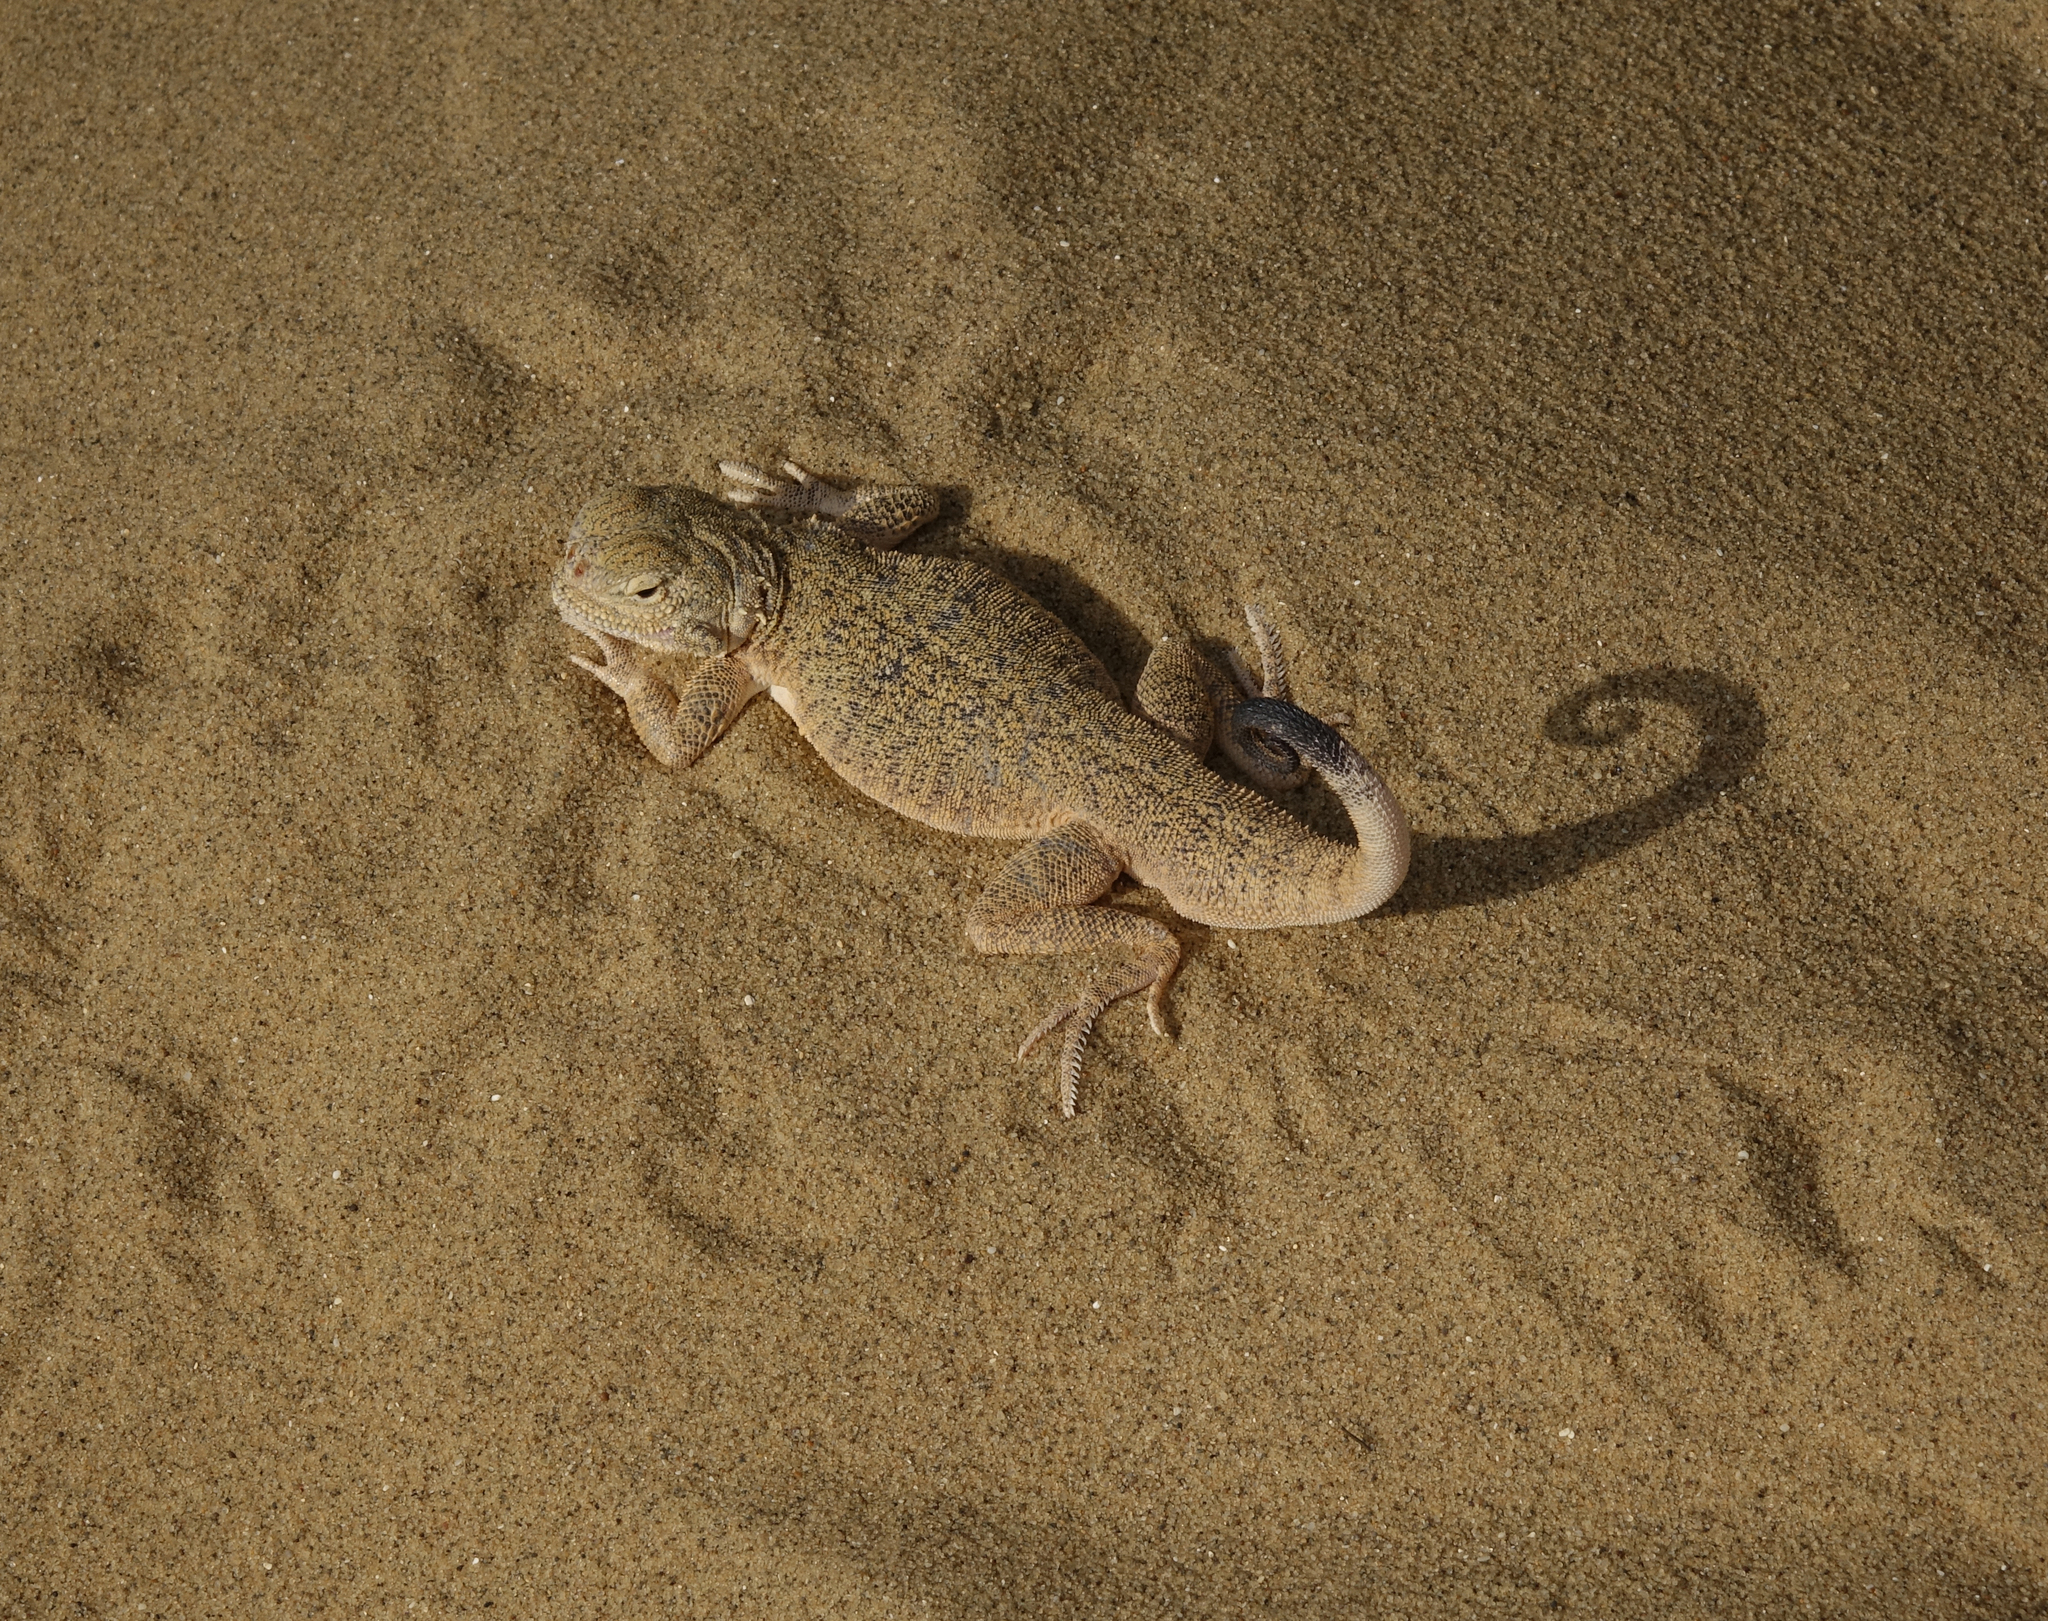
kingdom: Animalia
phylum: Chordata
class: Squamata
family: Agamidae
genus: Phrynocephalus
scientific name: Phrynocephalus mystaceus
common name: Secret toadhead agama
